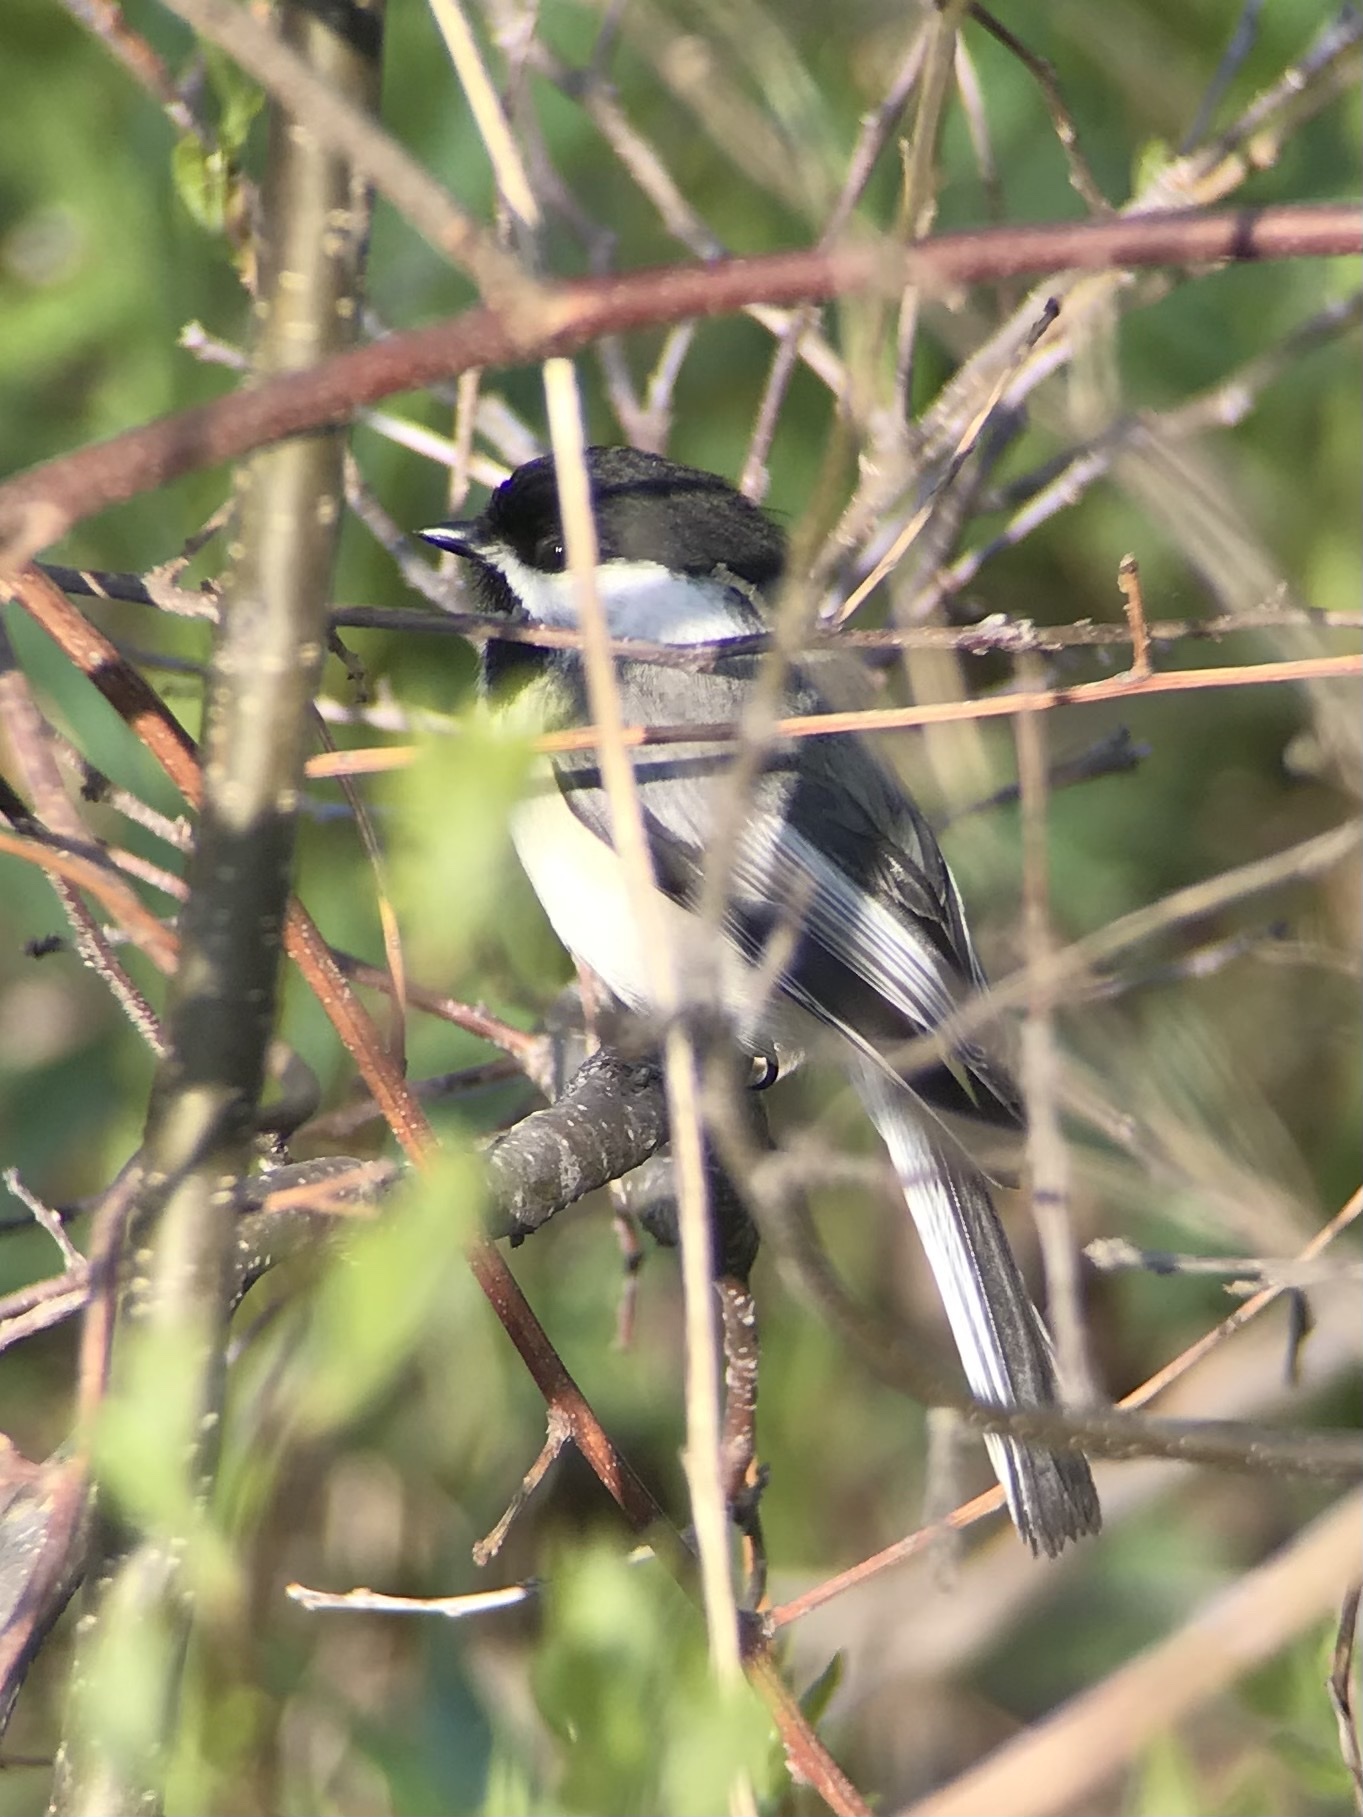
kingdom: Animalia
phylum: Chordata
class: Aves
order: Passeriformes
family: Paridae
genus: Poecile
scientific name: Poecile atricapillus
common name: Black-capped chickadee
